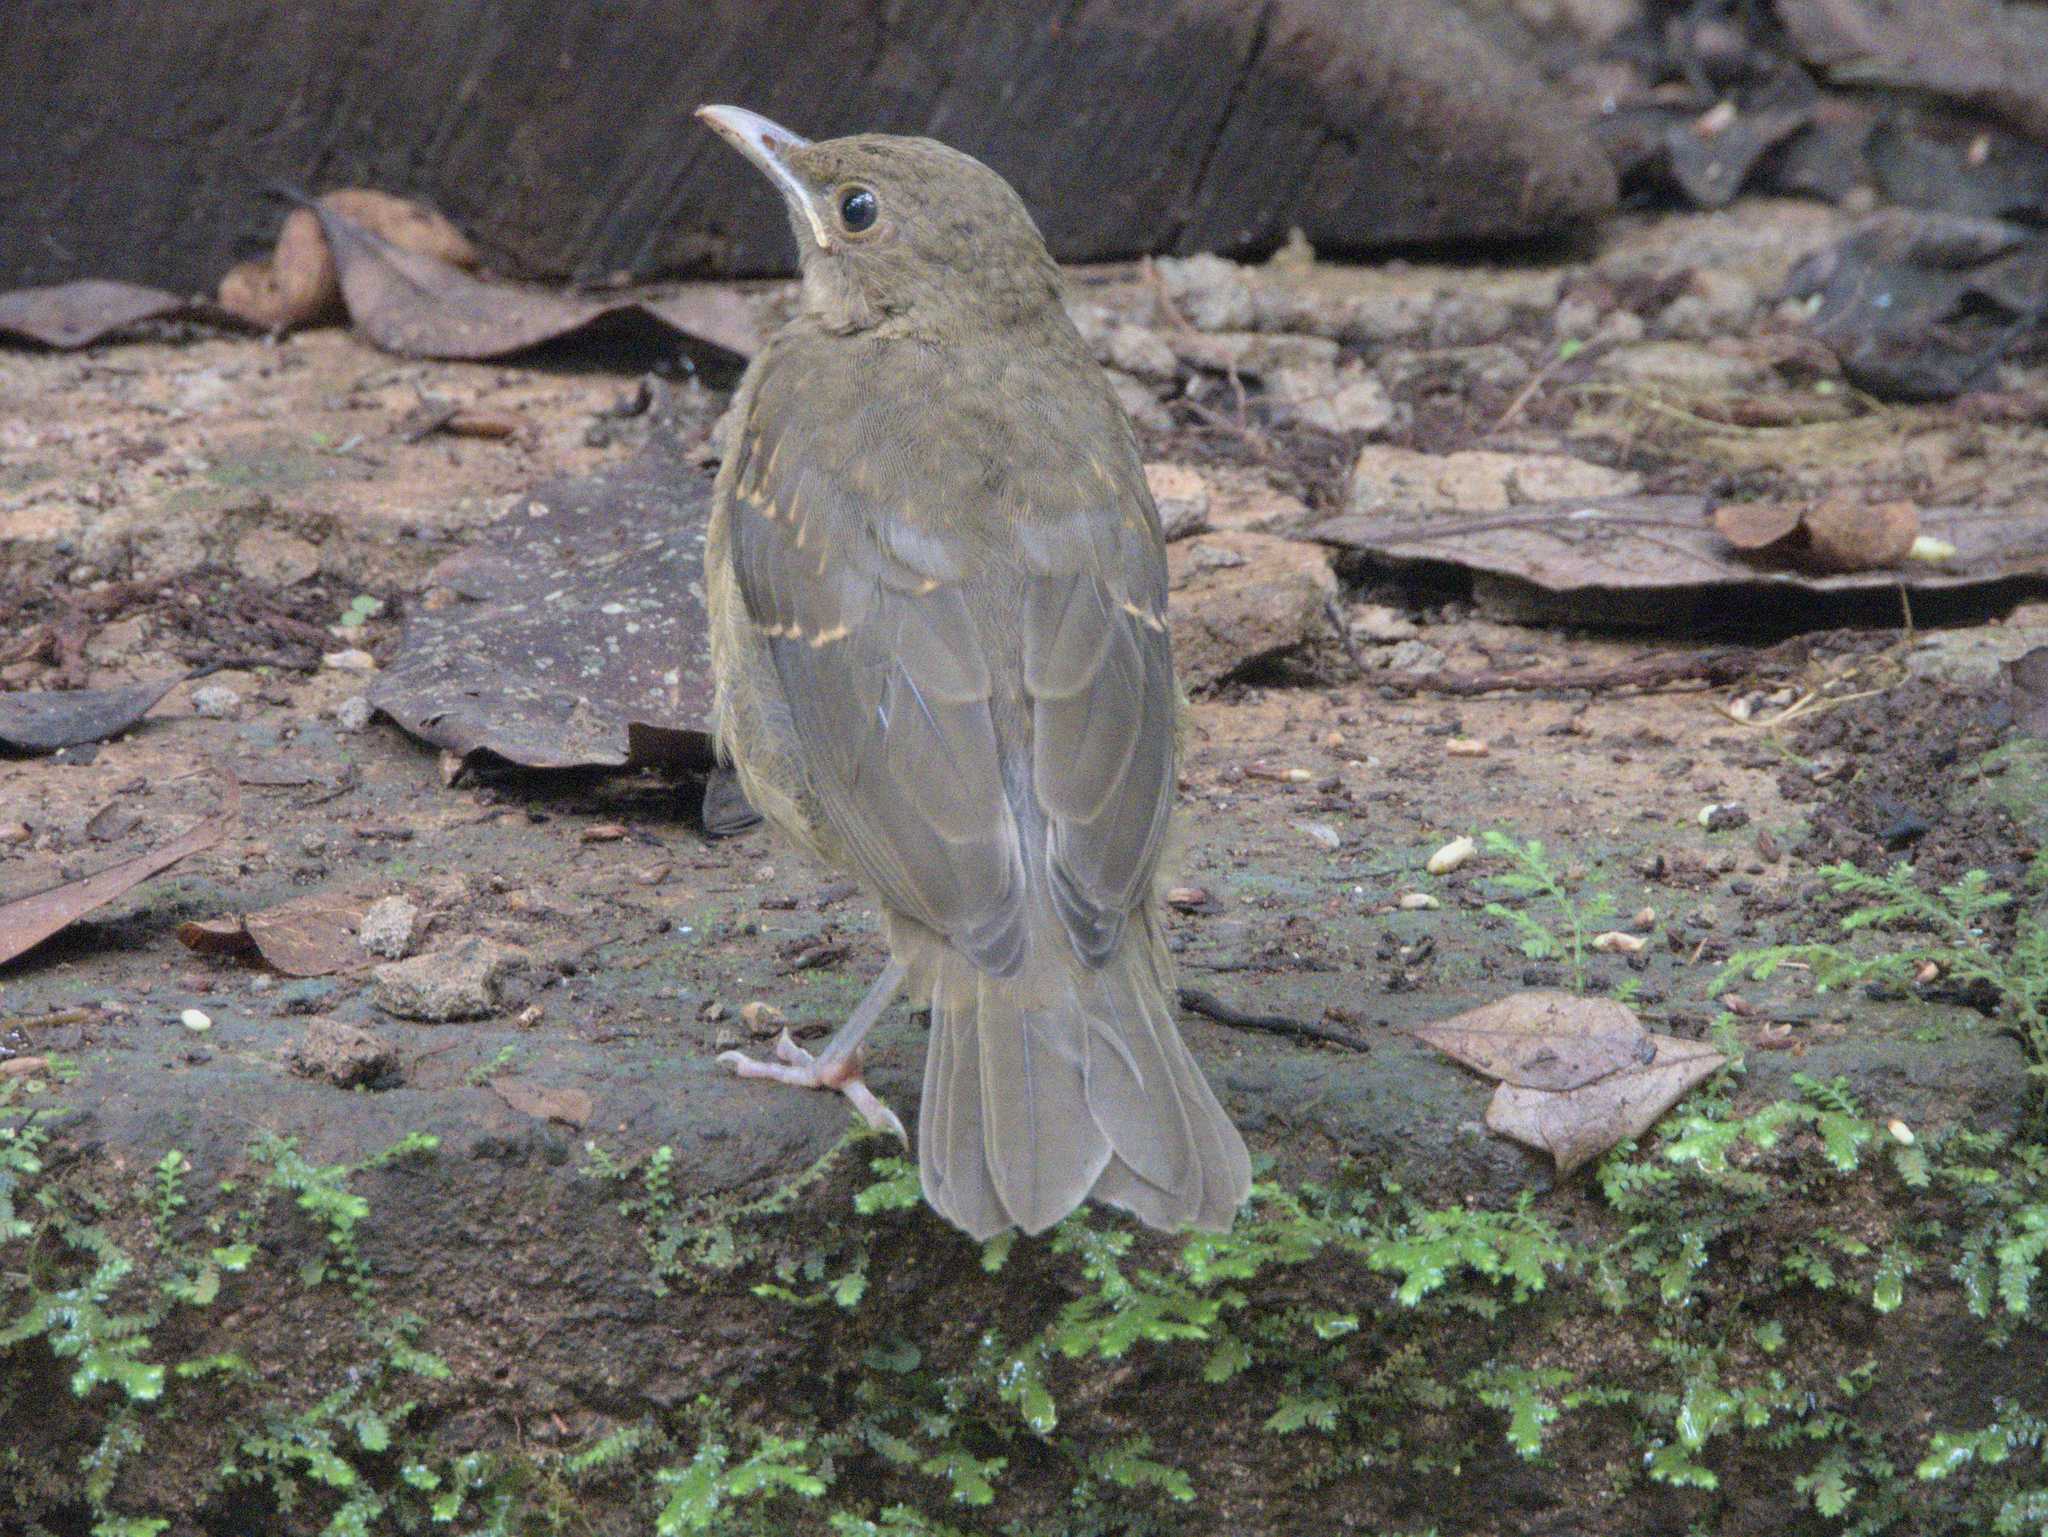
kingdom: Animalia
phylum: Chordata
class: Aves
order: Passeriformes
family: Turdidae
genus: Turdus
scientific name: Turdus grayi
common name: Clay-colored thrush
